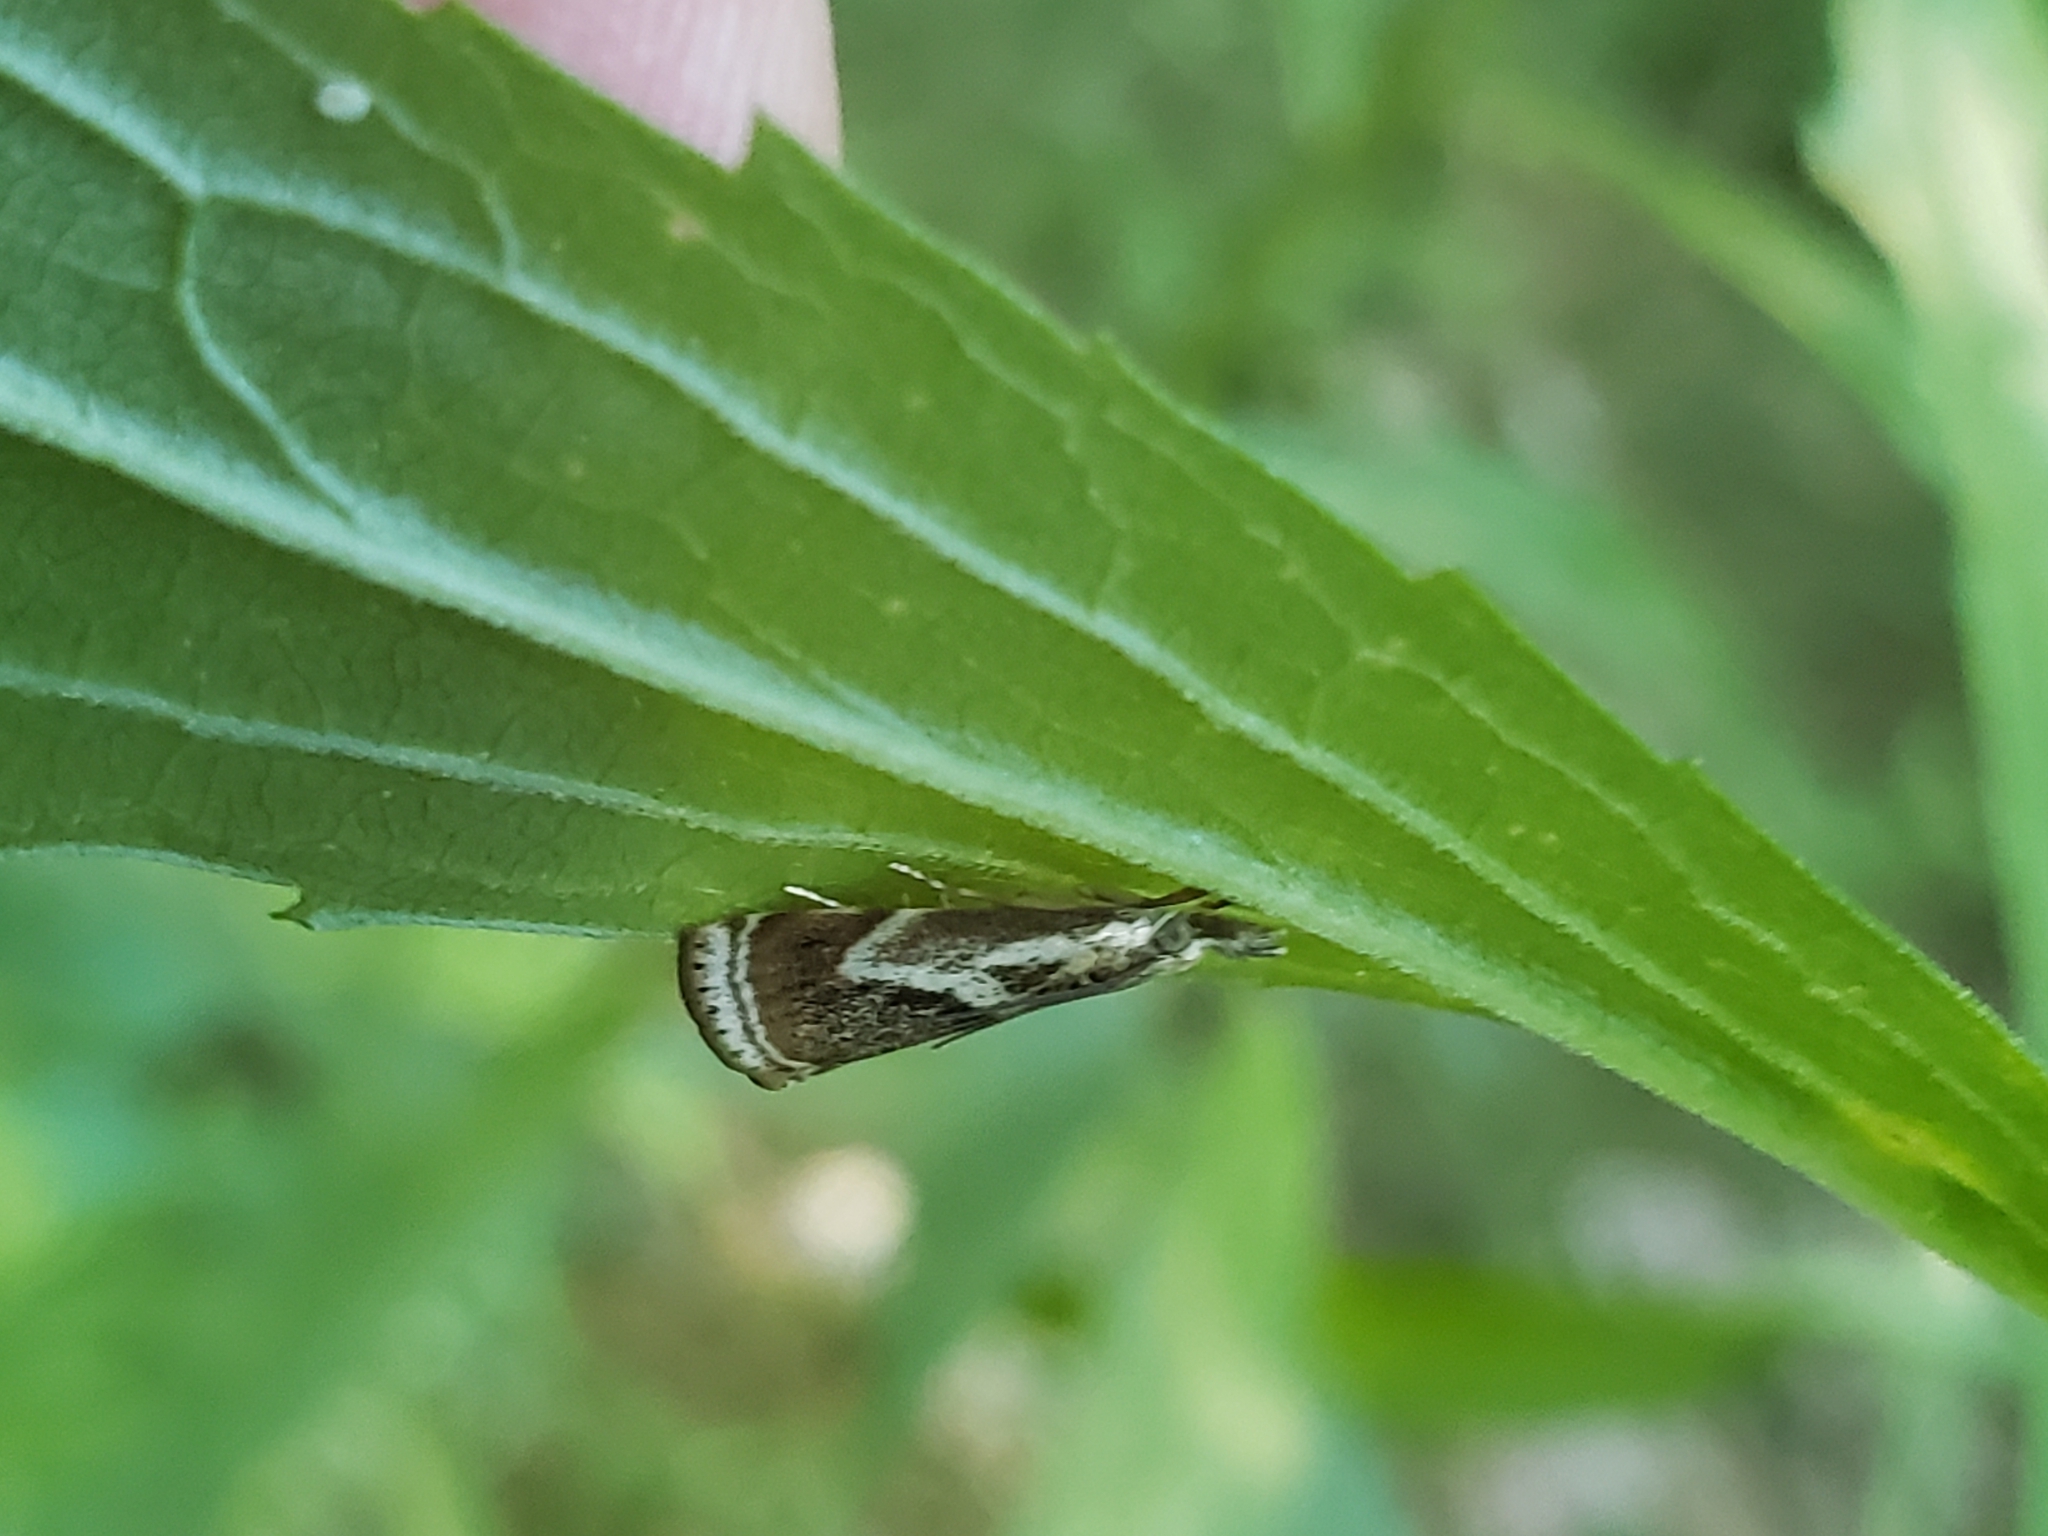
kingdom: Animalia
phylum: Arthropoda
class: Insecta
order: Lepidoptera
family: Crambidae
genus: Microcrambus
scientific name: Microcrambus elegans
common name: Elegant grass-veneer
